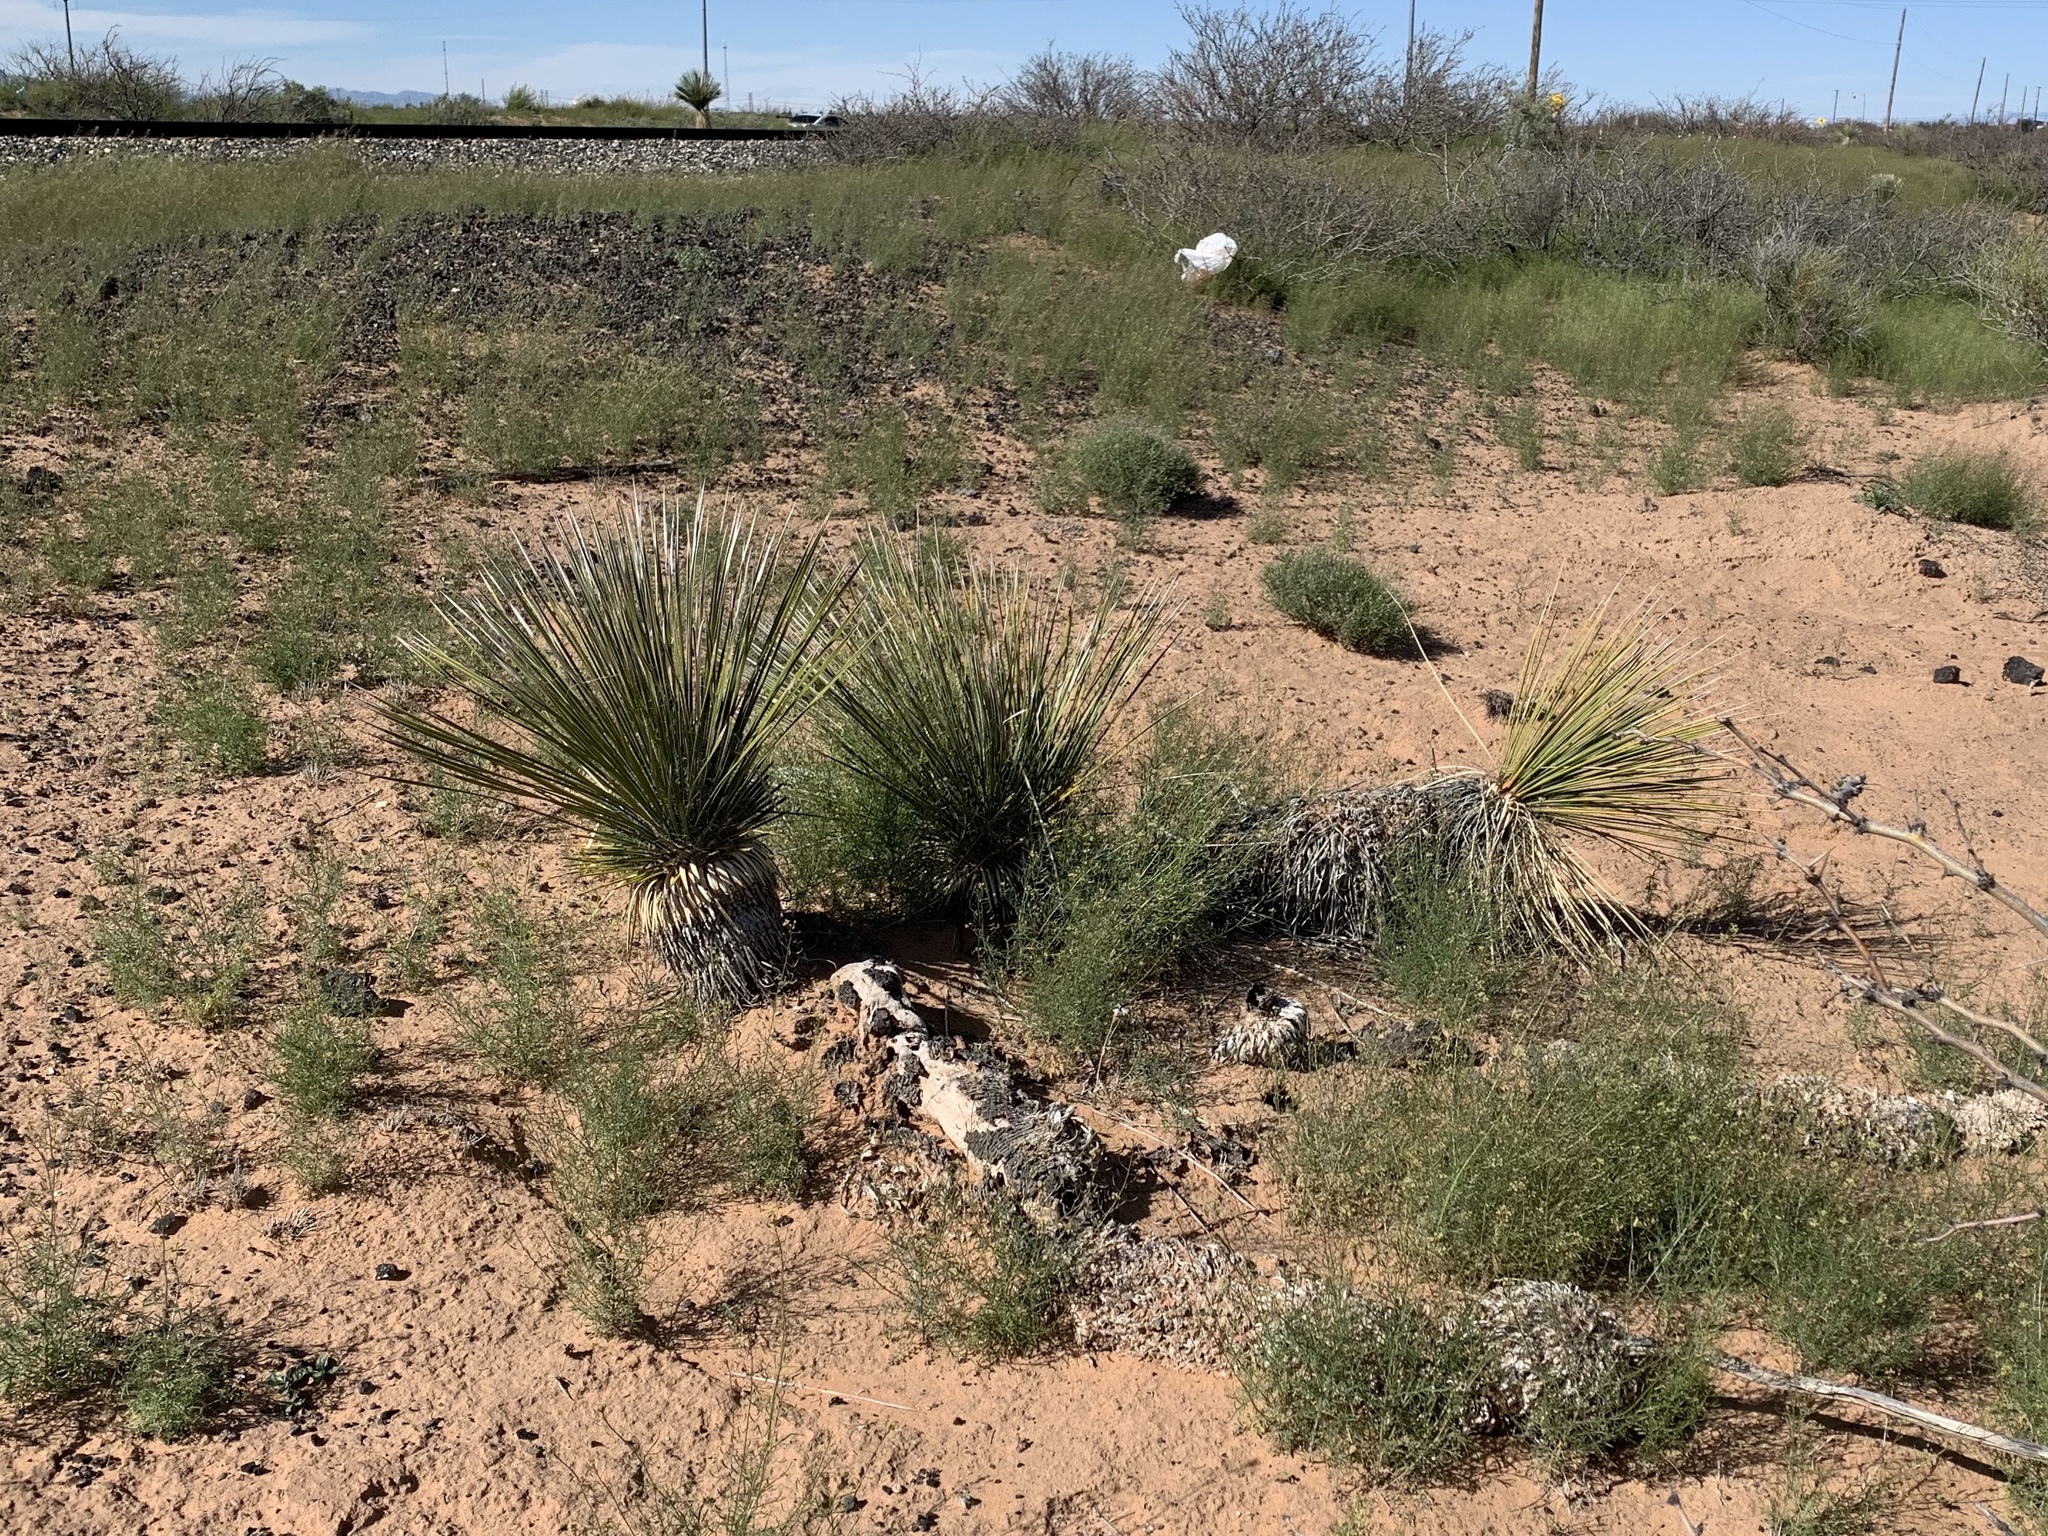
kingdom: Plantae
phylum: Tracheophyta
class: Liliopsida
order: Asparagales
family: Asparagaceae
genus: Yucca
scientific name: Yucca elata
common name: Palmella
